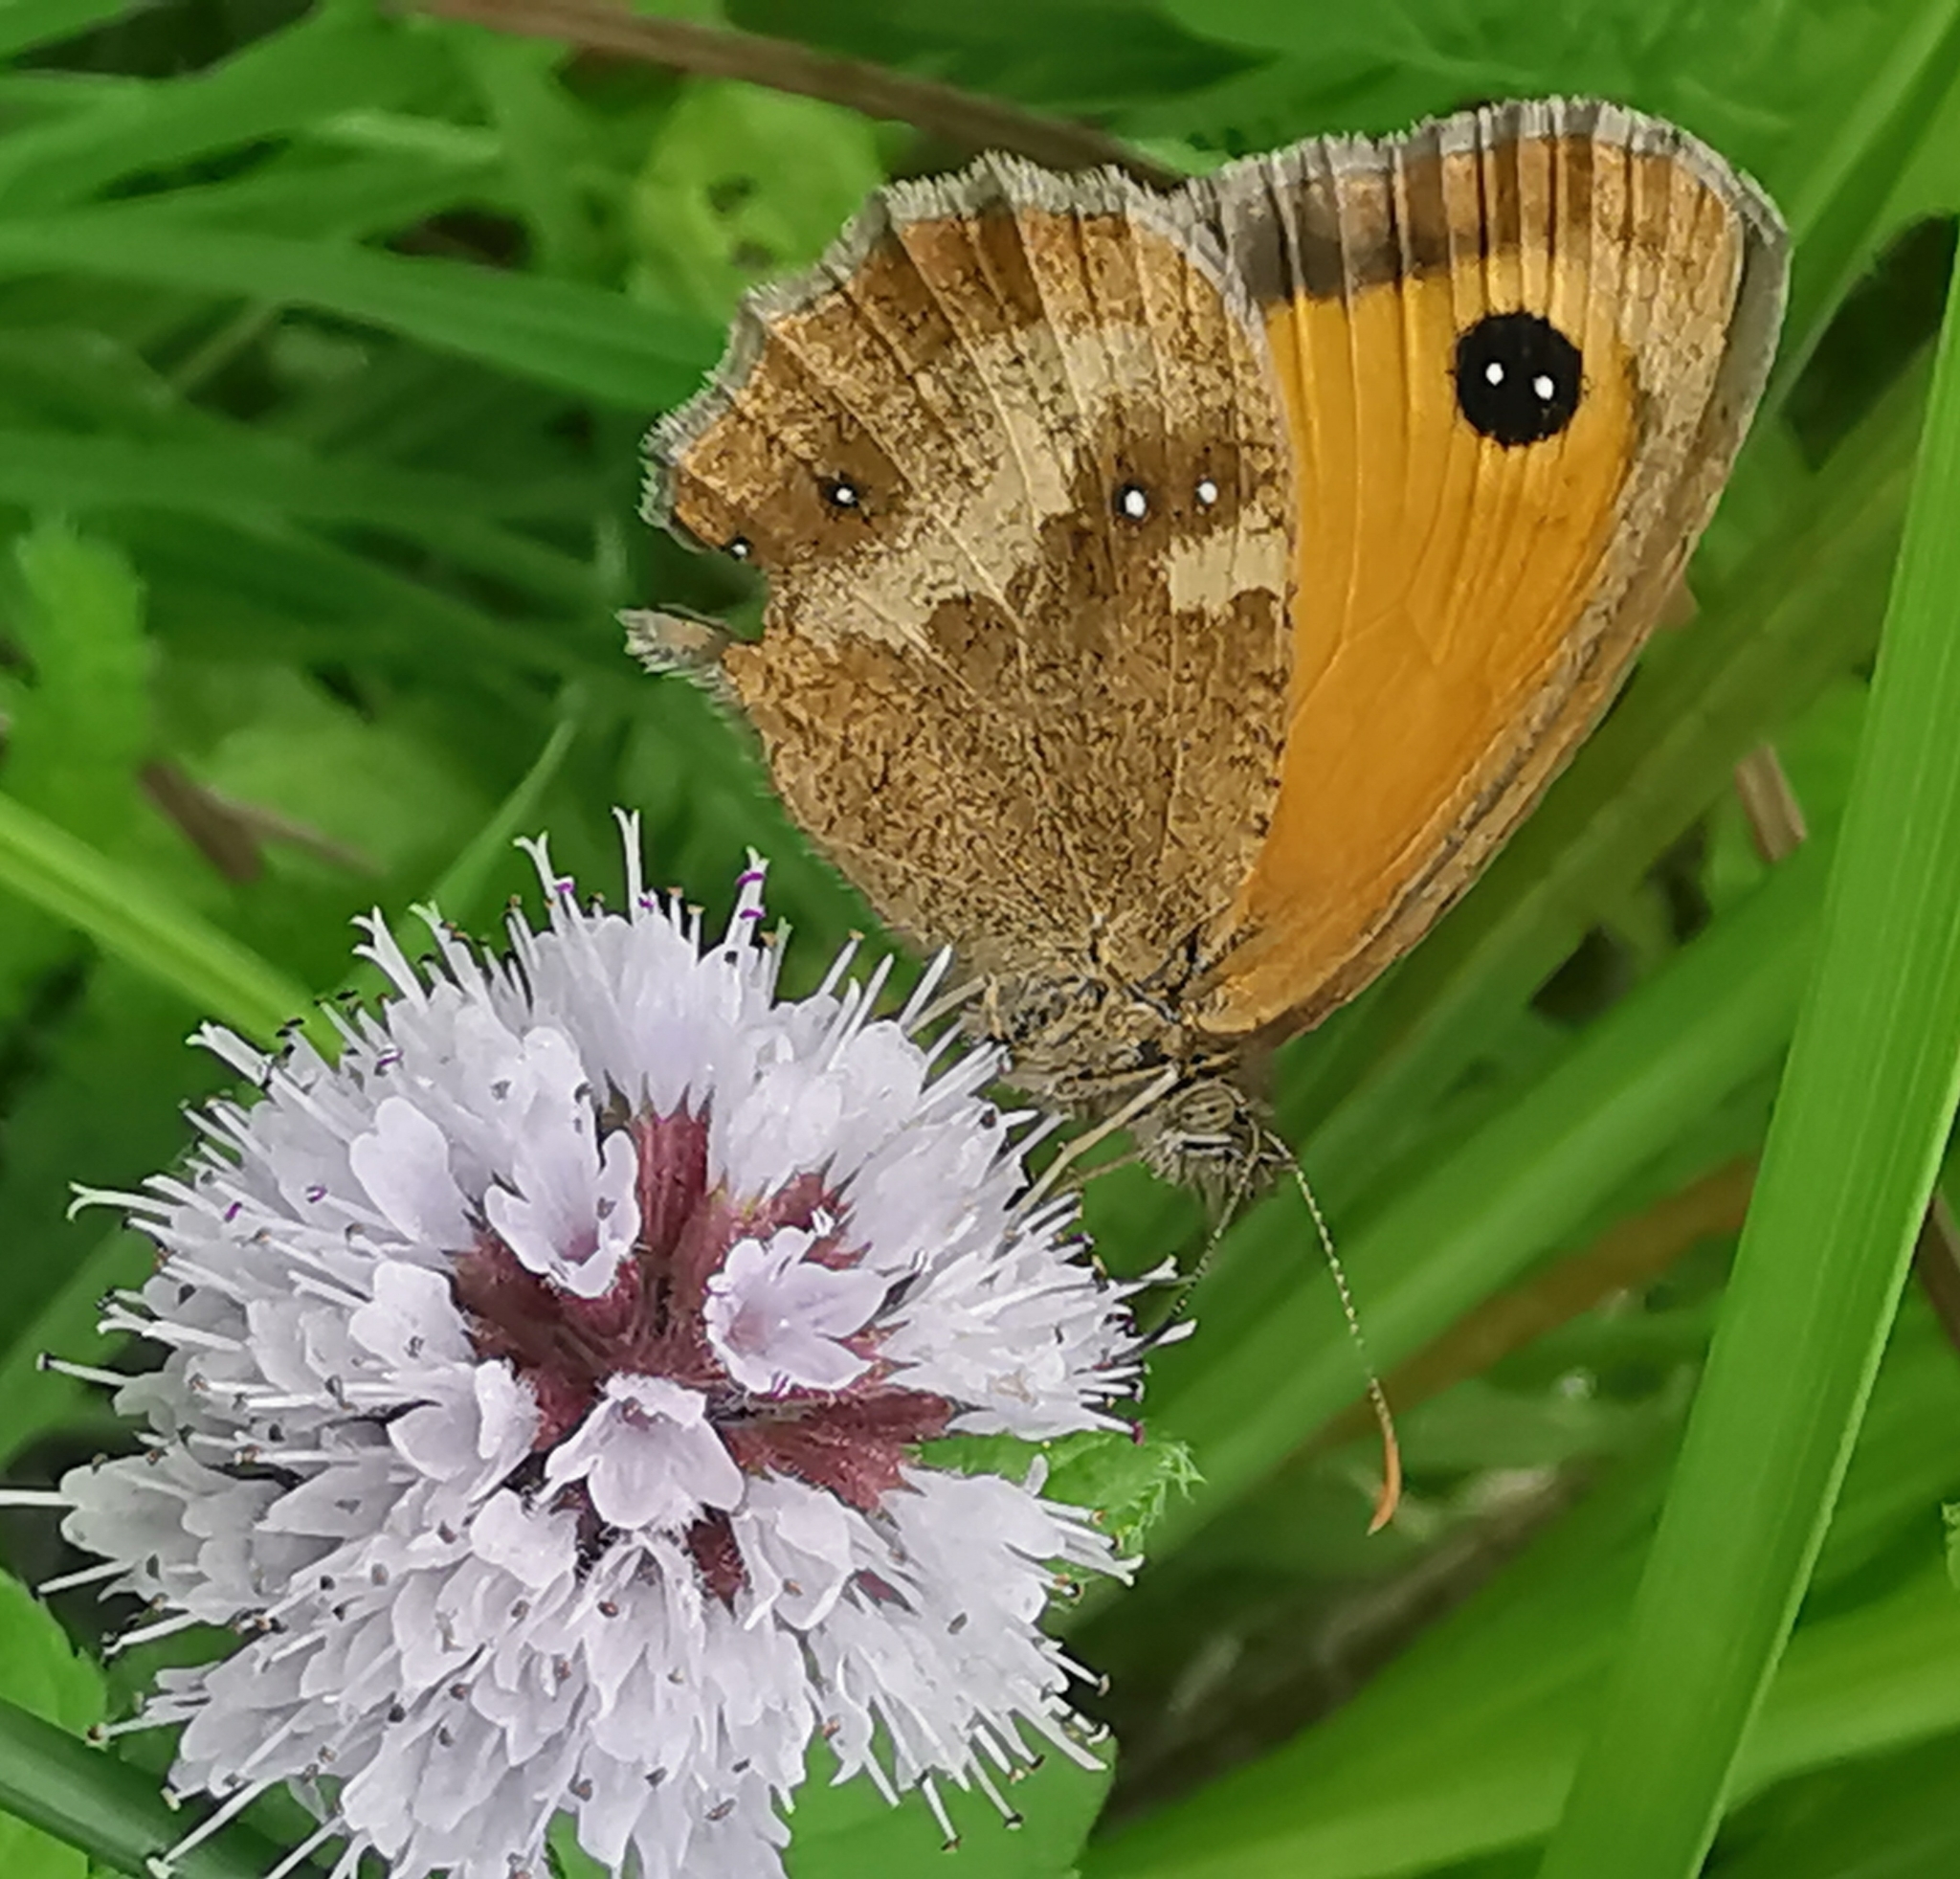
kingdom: Animalia
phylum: Arthropoda
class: Insecta
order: Lepidoptera
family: Nymphalidae
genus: Pyronia
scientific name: Pyronia tithonus
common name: Gatekeeper
